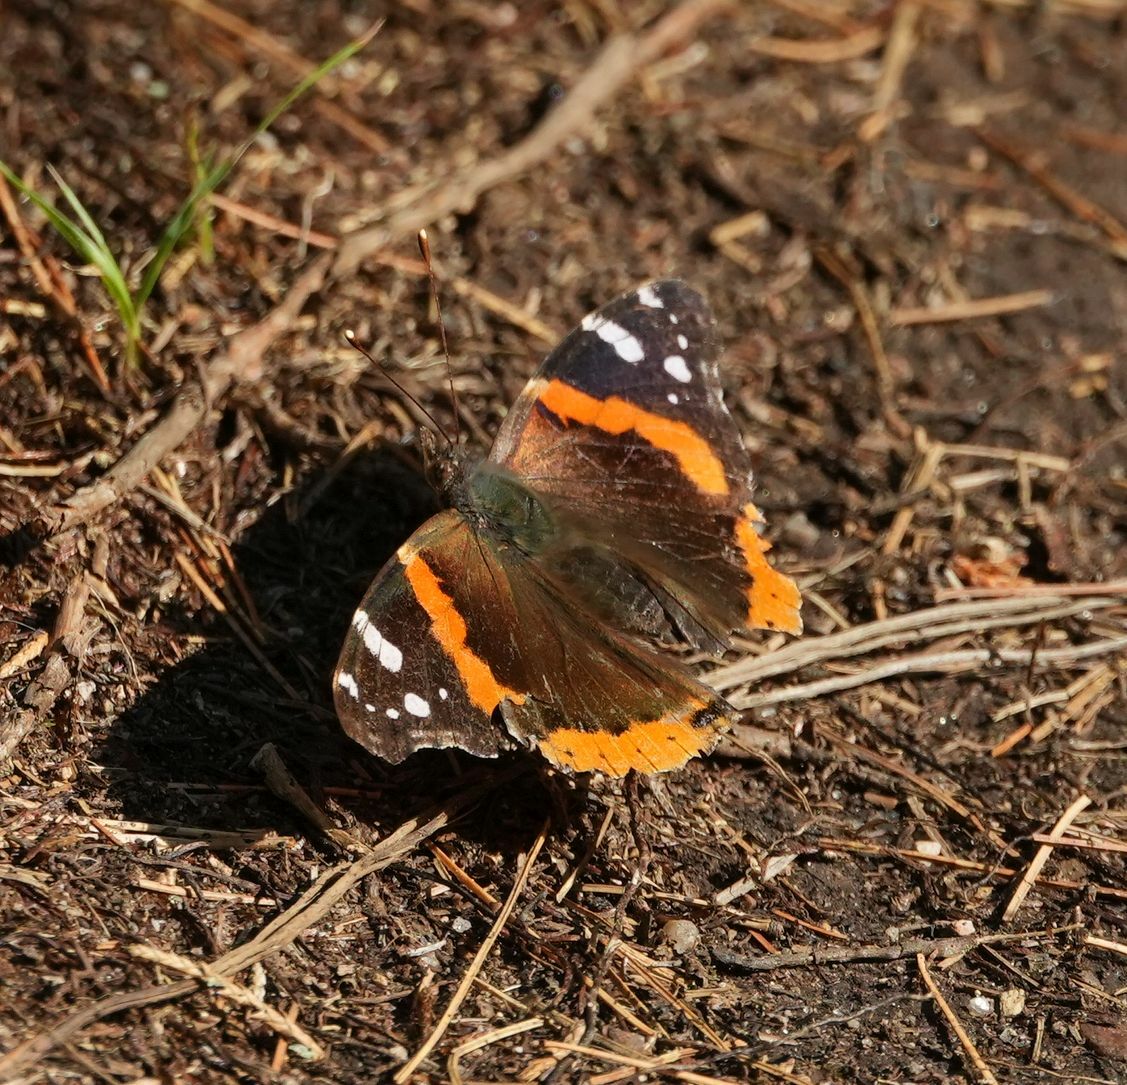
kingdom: Animalia
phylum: Arthropoda
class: Insecta
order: Lepidoptera
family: Nymphalidae
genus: Vanessa
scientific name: Vanessa atalanta
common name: Red admiral
